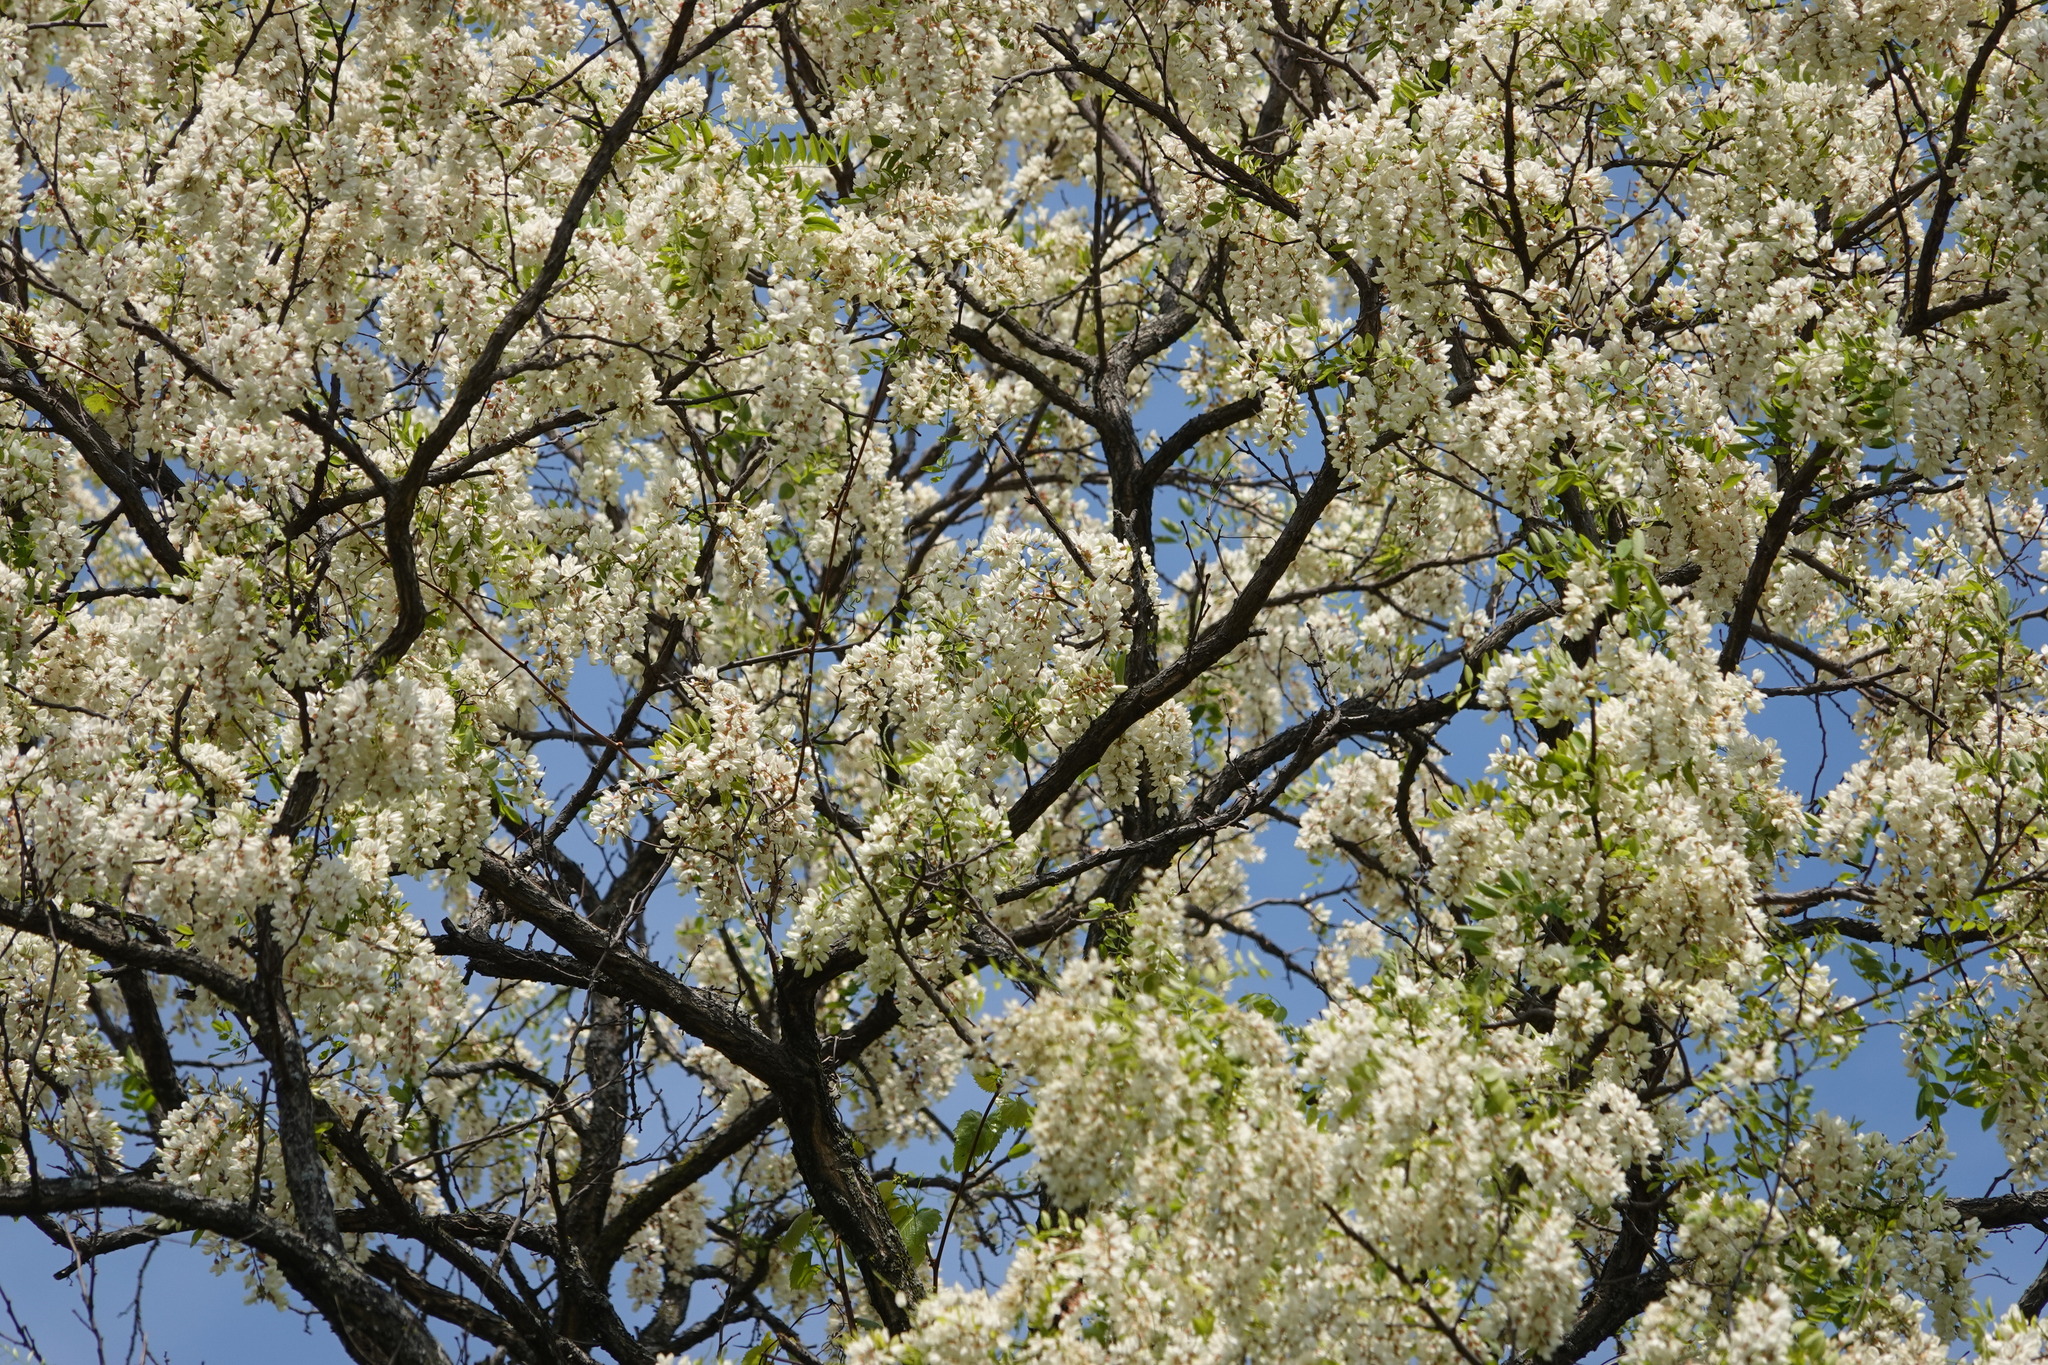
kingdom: Plantae
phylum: Tracheophyta
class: Magnoliopsida
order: Fabales
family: Fabaceae
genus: Robinia
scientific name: Robinia pseudoacacia
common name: Black locust
